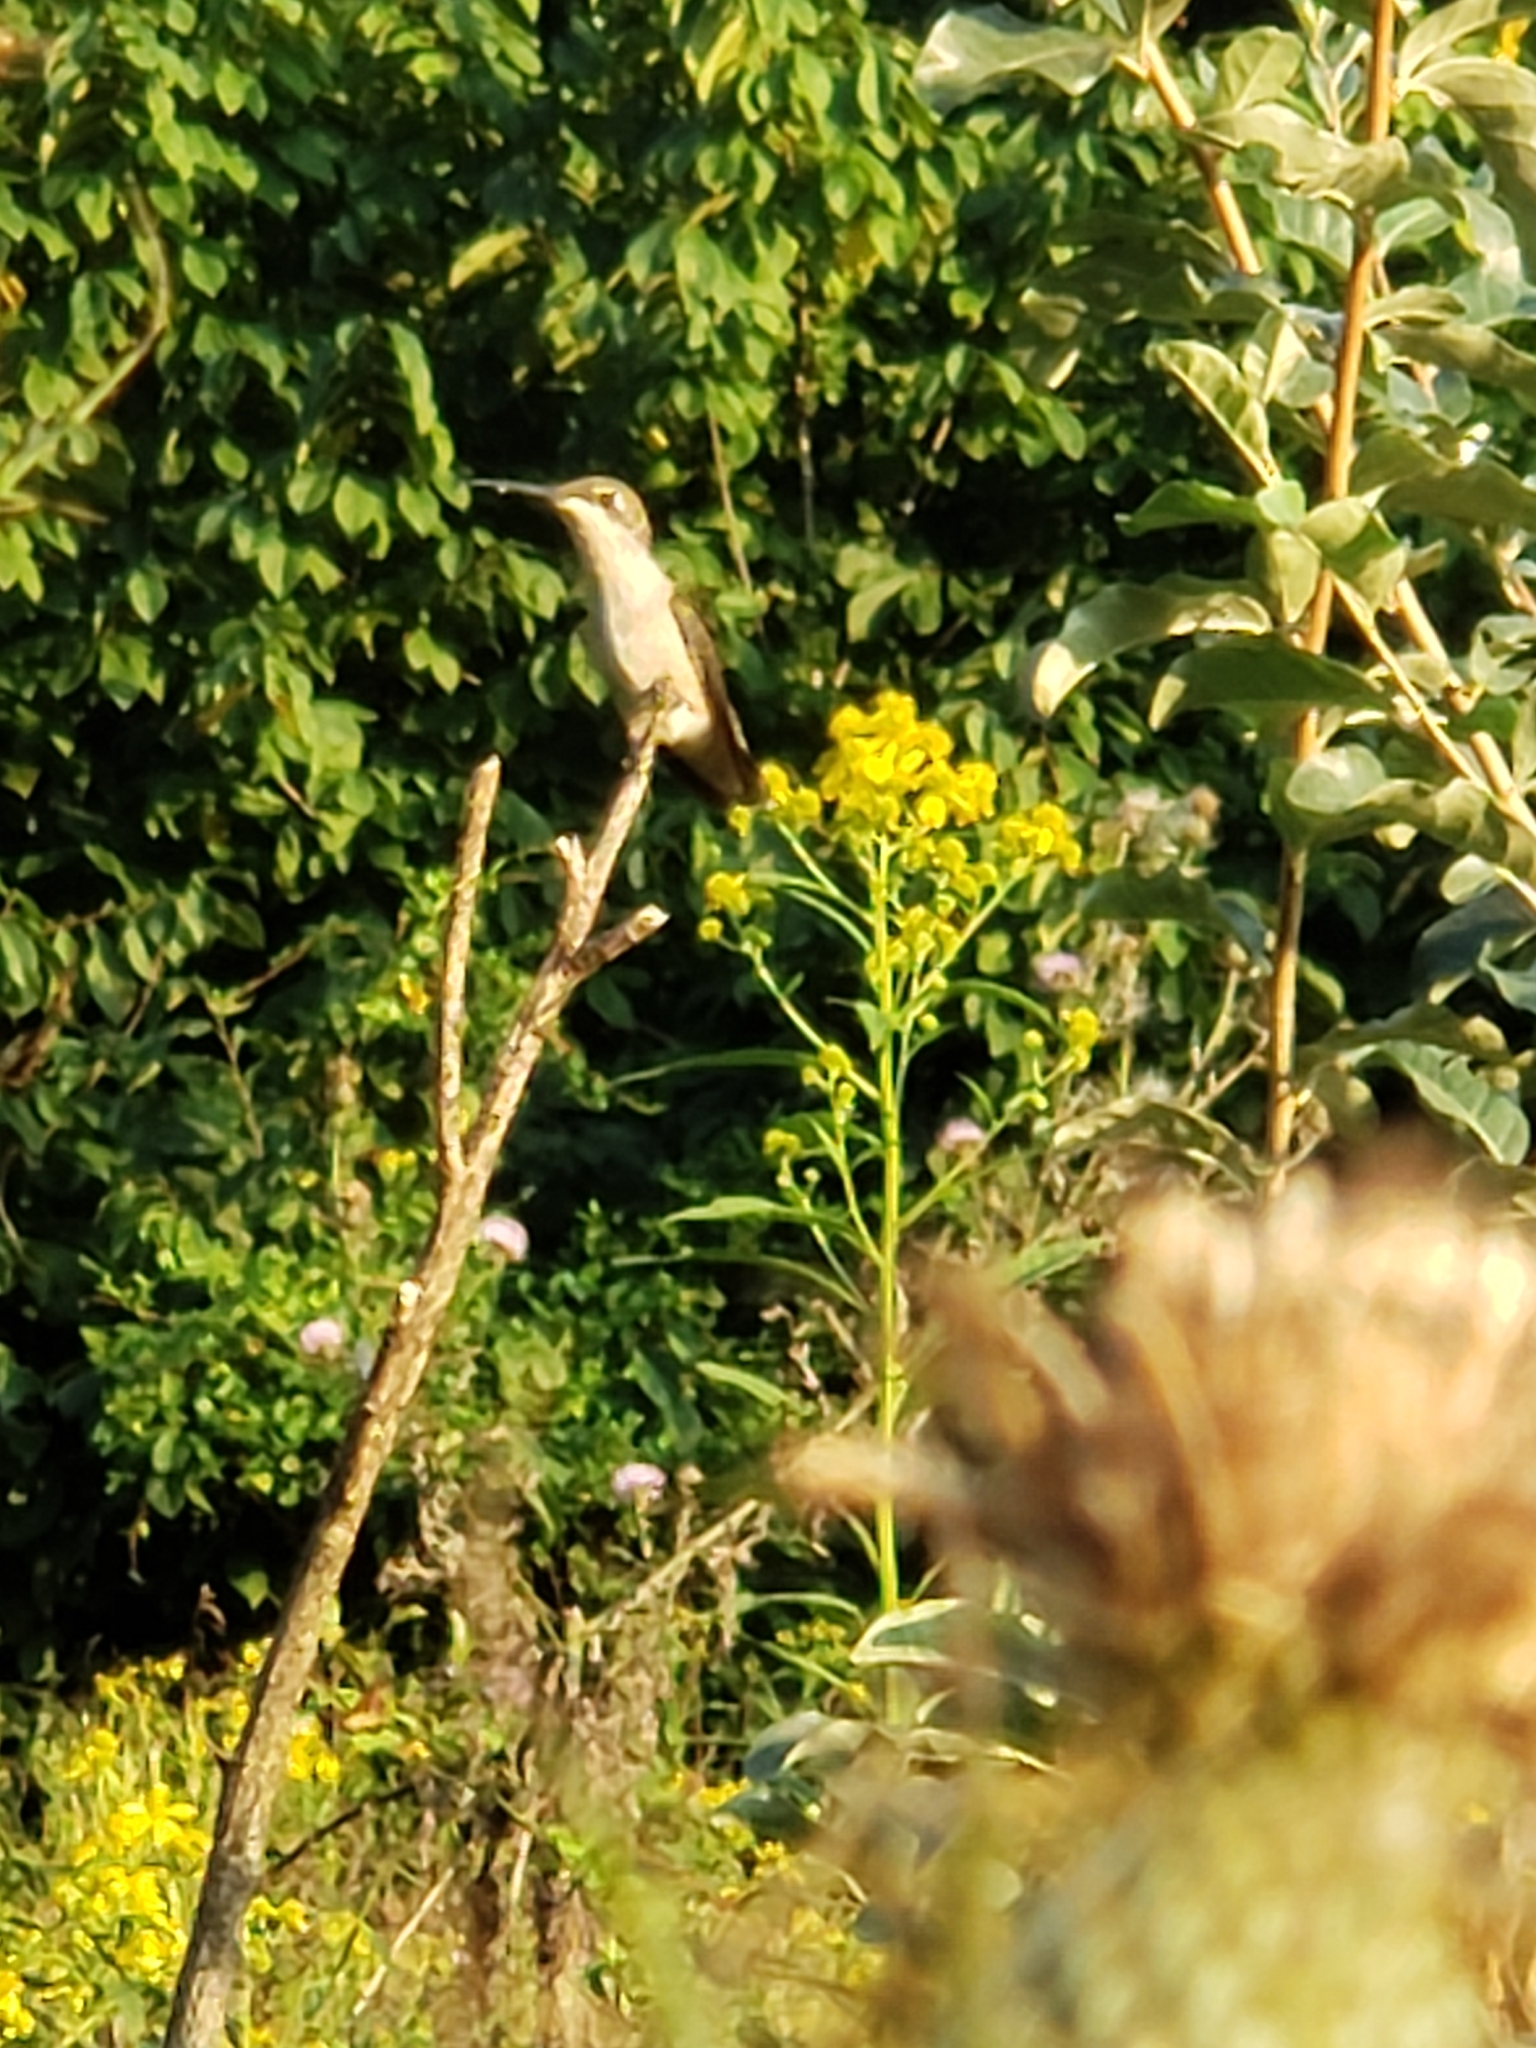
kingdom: Animalia
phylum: Chordata
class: Aves
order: Apodiformes
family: Trochilidae
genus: Archilochus
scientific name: Archilochus colubris
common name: Ruby-throated hummingbird
